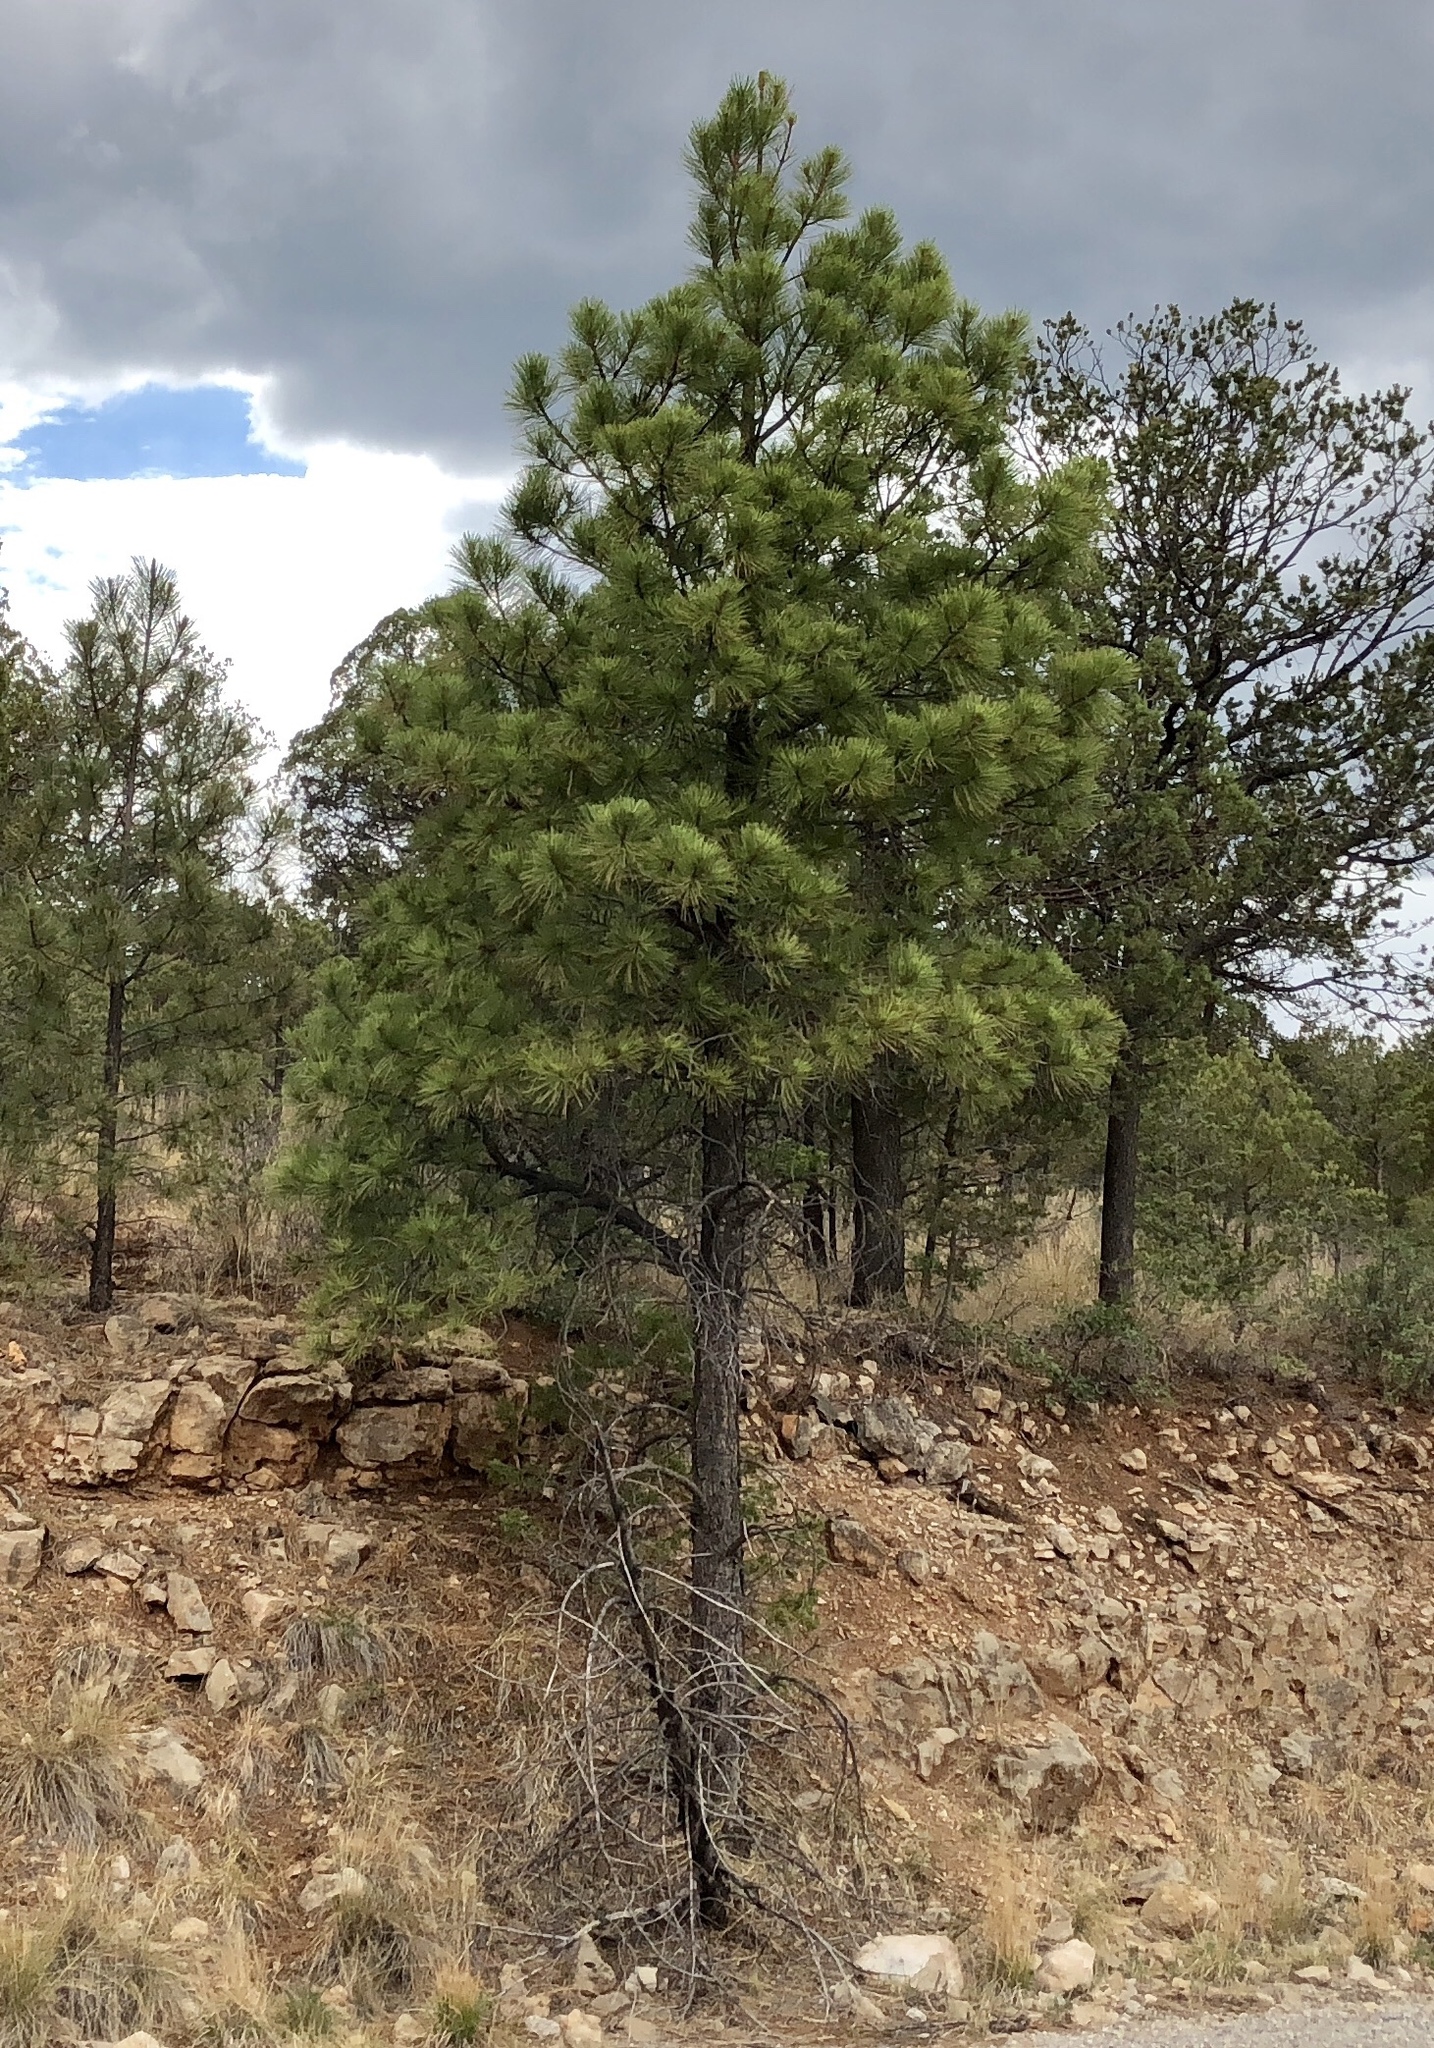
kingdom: Plantae
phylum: Tracheophyta
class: Pinopsida
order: Pinales
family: Pinaceae
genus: Pinus
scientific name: Pinus ponderosa
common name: Western yellow-pine
